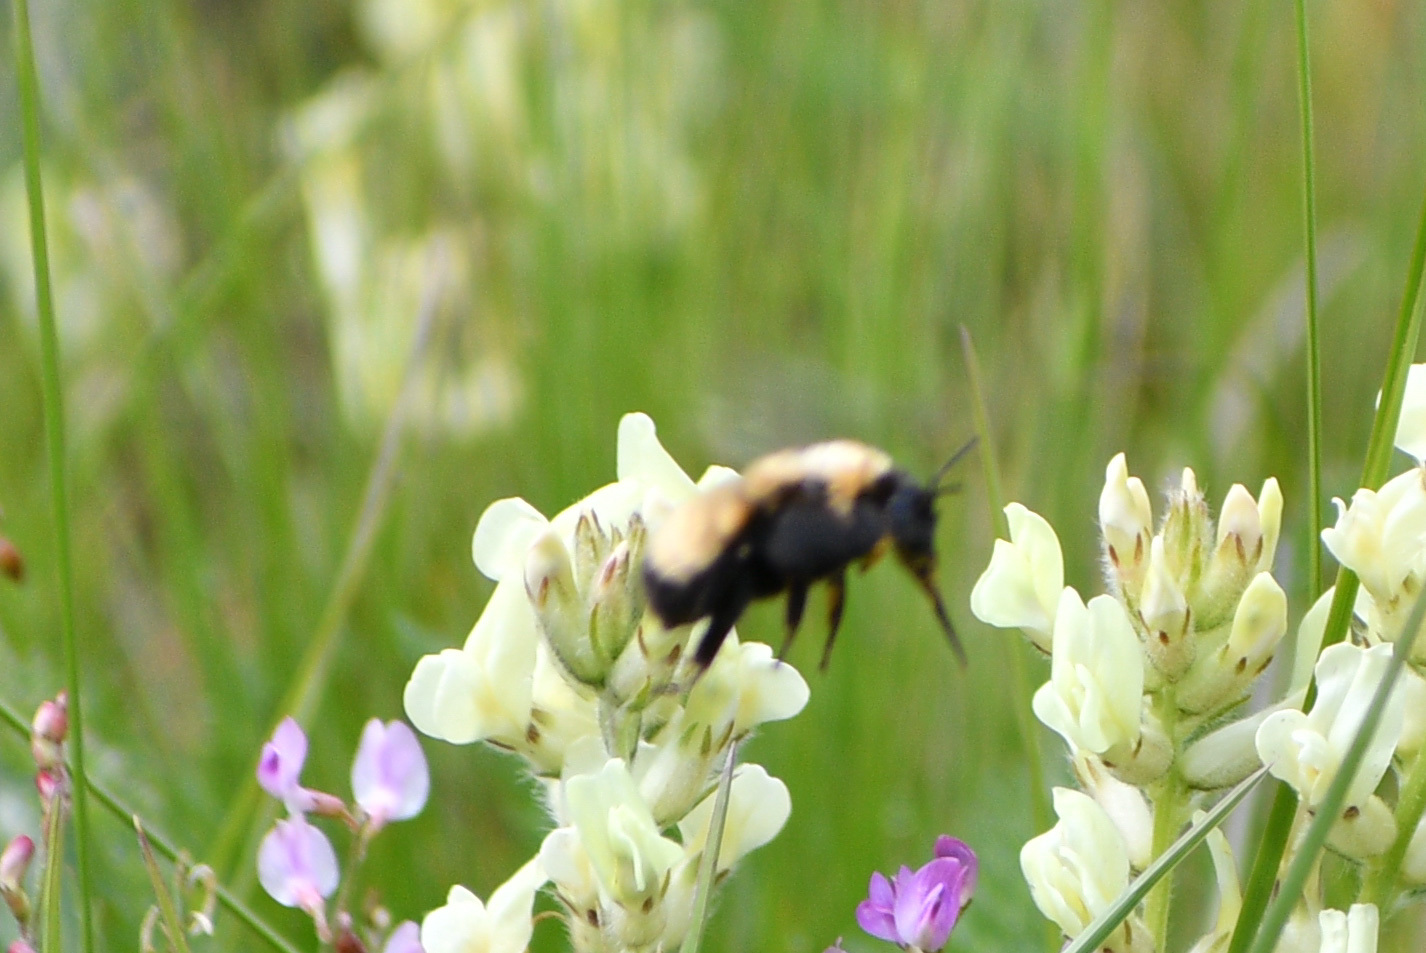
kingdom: Animalia
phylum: Arthropoda
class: Insecta
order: Hymenoptera
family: Apidae
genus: Bombus
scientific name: Bombus nevadensis
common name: Nevada bumble bee
